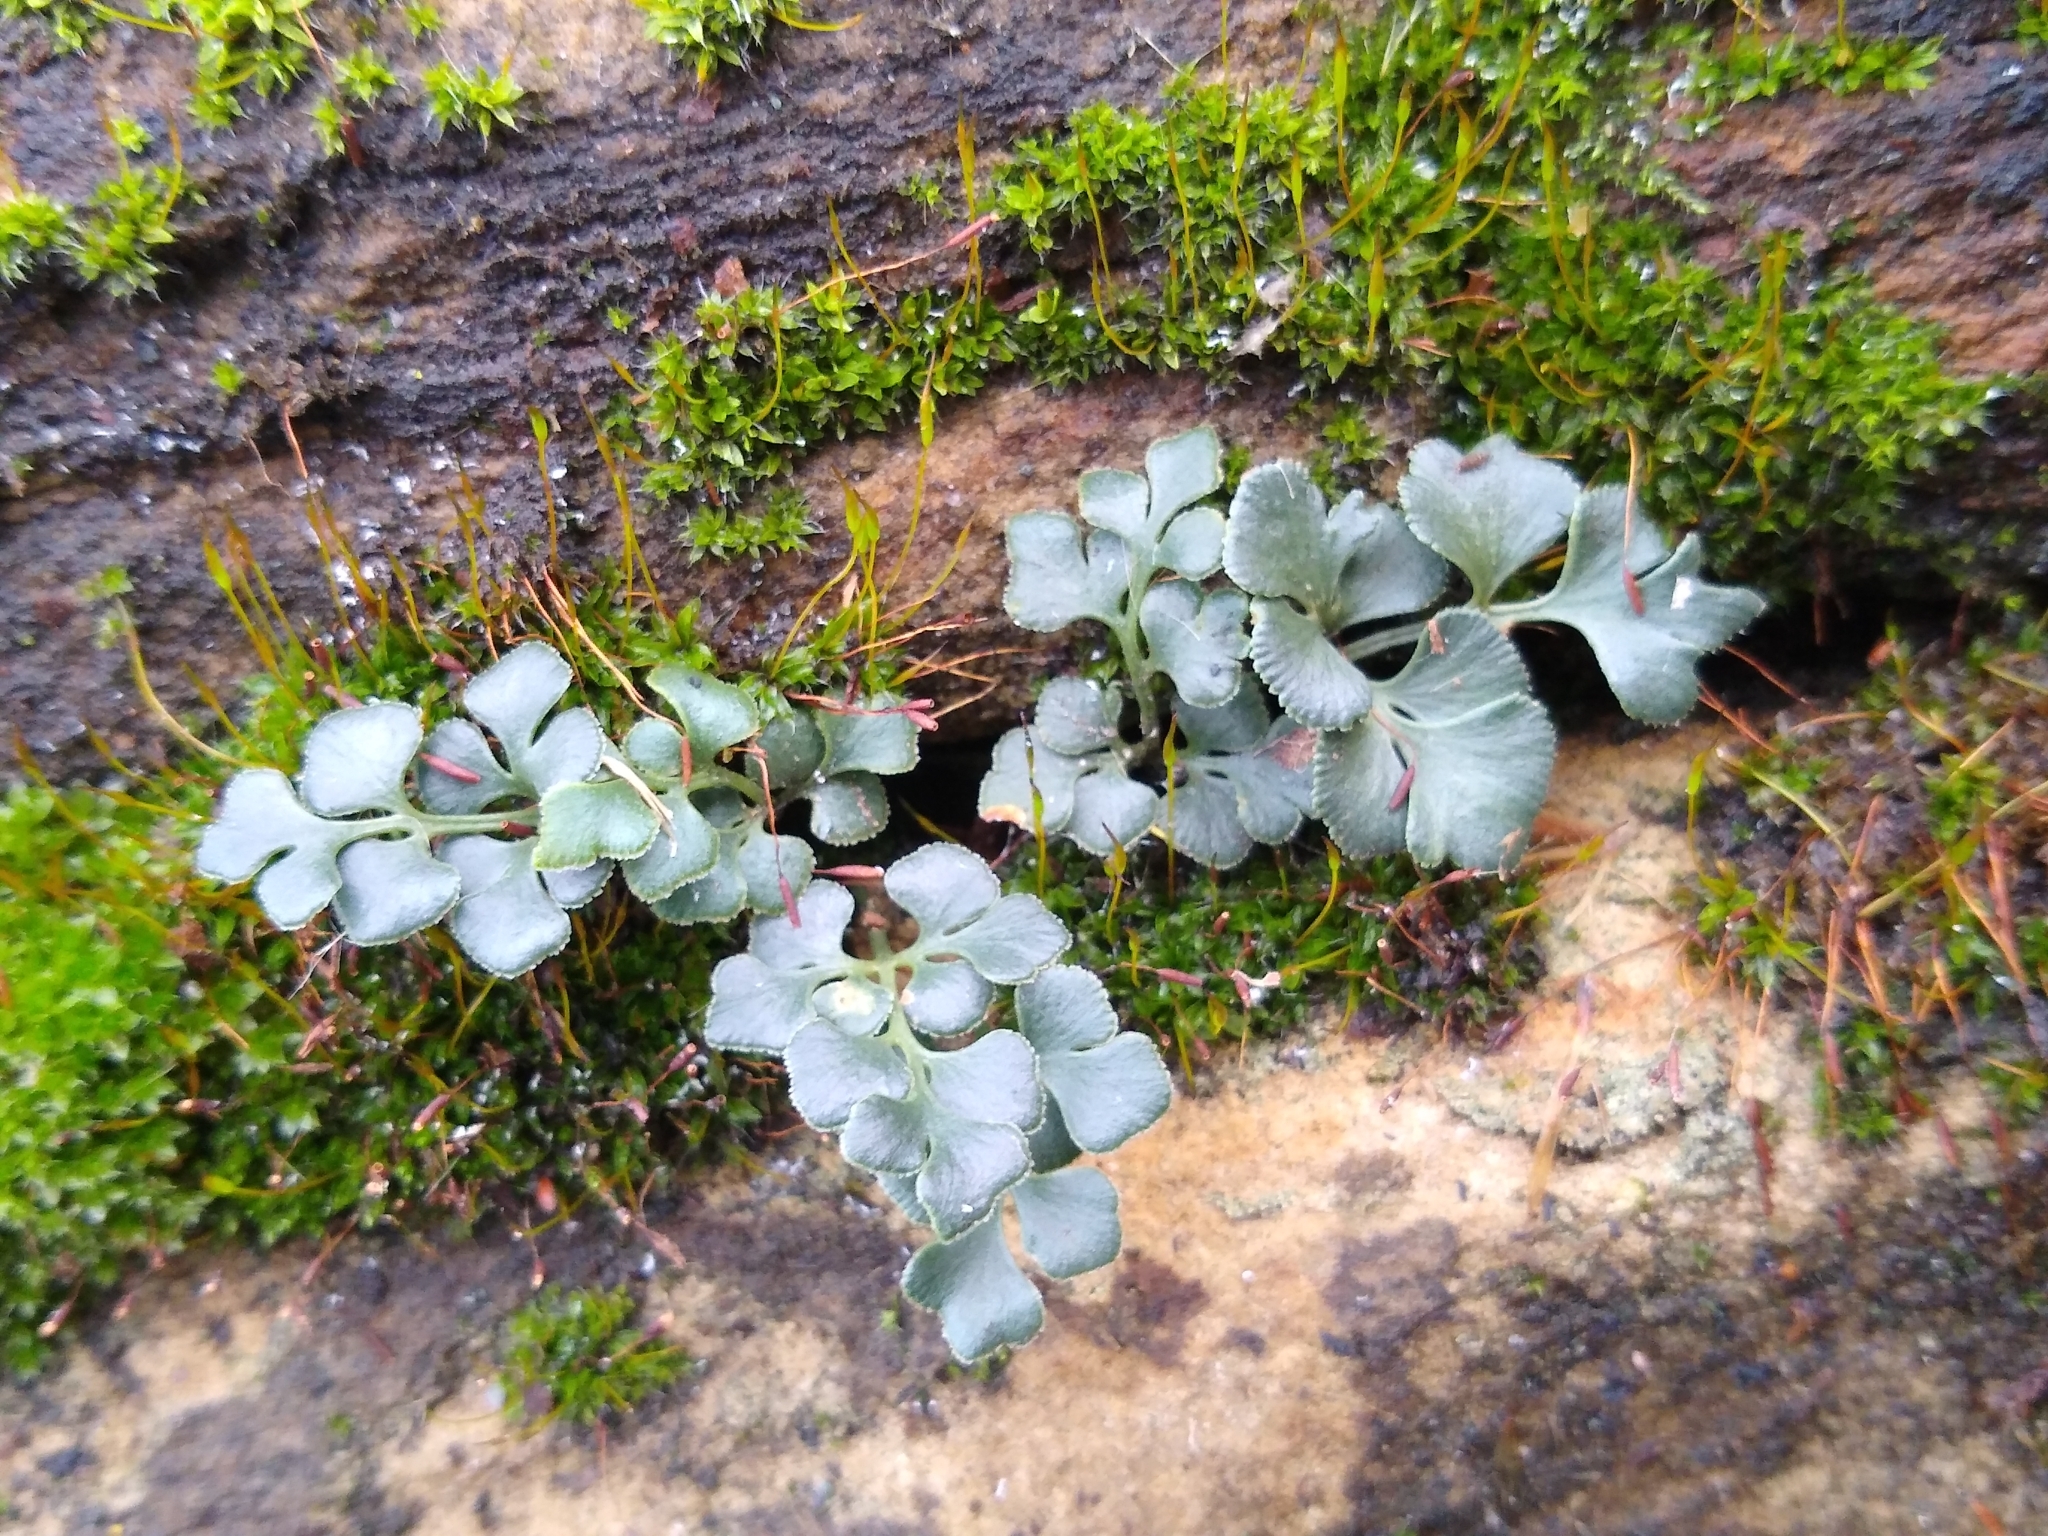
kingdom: Plantae
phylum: Tracheophyta
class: Polypodiopsida
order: Polypodiales
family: Aspleniaceae
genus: Asplenium
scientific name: Asplenium ruta-muraria
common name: Wall-rue
